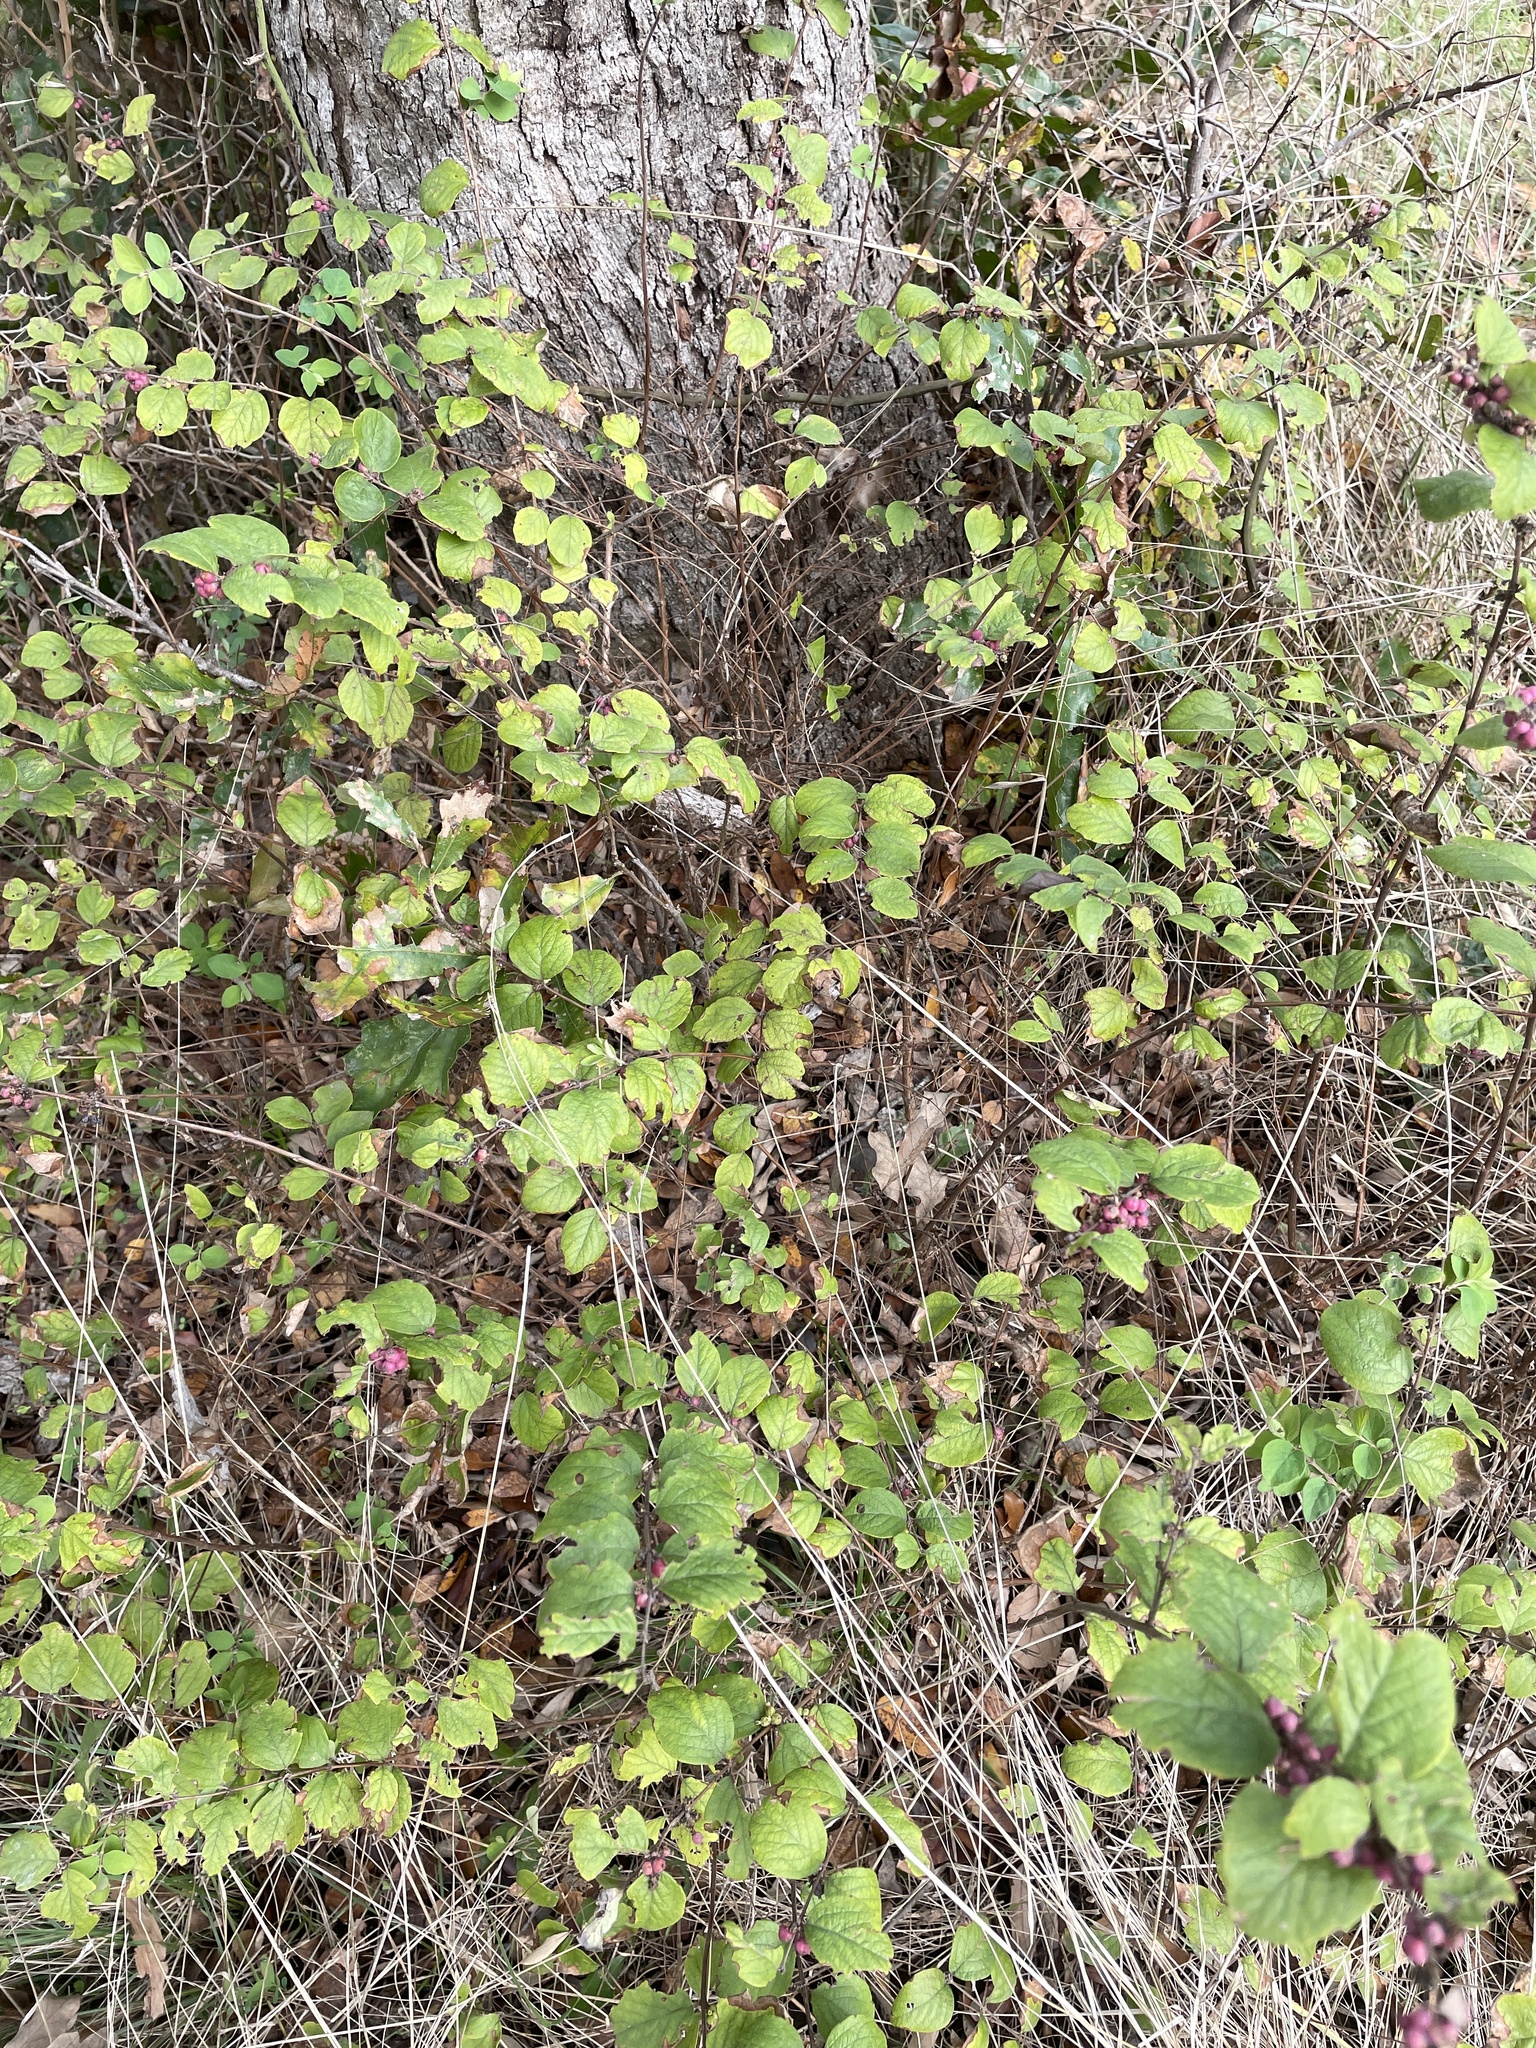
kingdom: Plantae
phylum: Tracheophyta
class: Magnoliopsida
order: Dipsacales
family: Caprifoliaceae
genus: Symphoricarpos
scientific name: Symphoricarpos orbiculatus
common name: Coralberry
